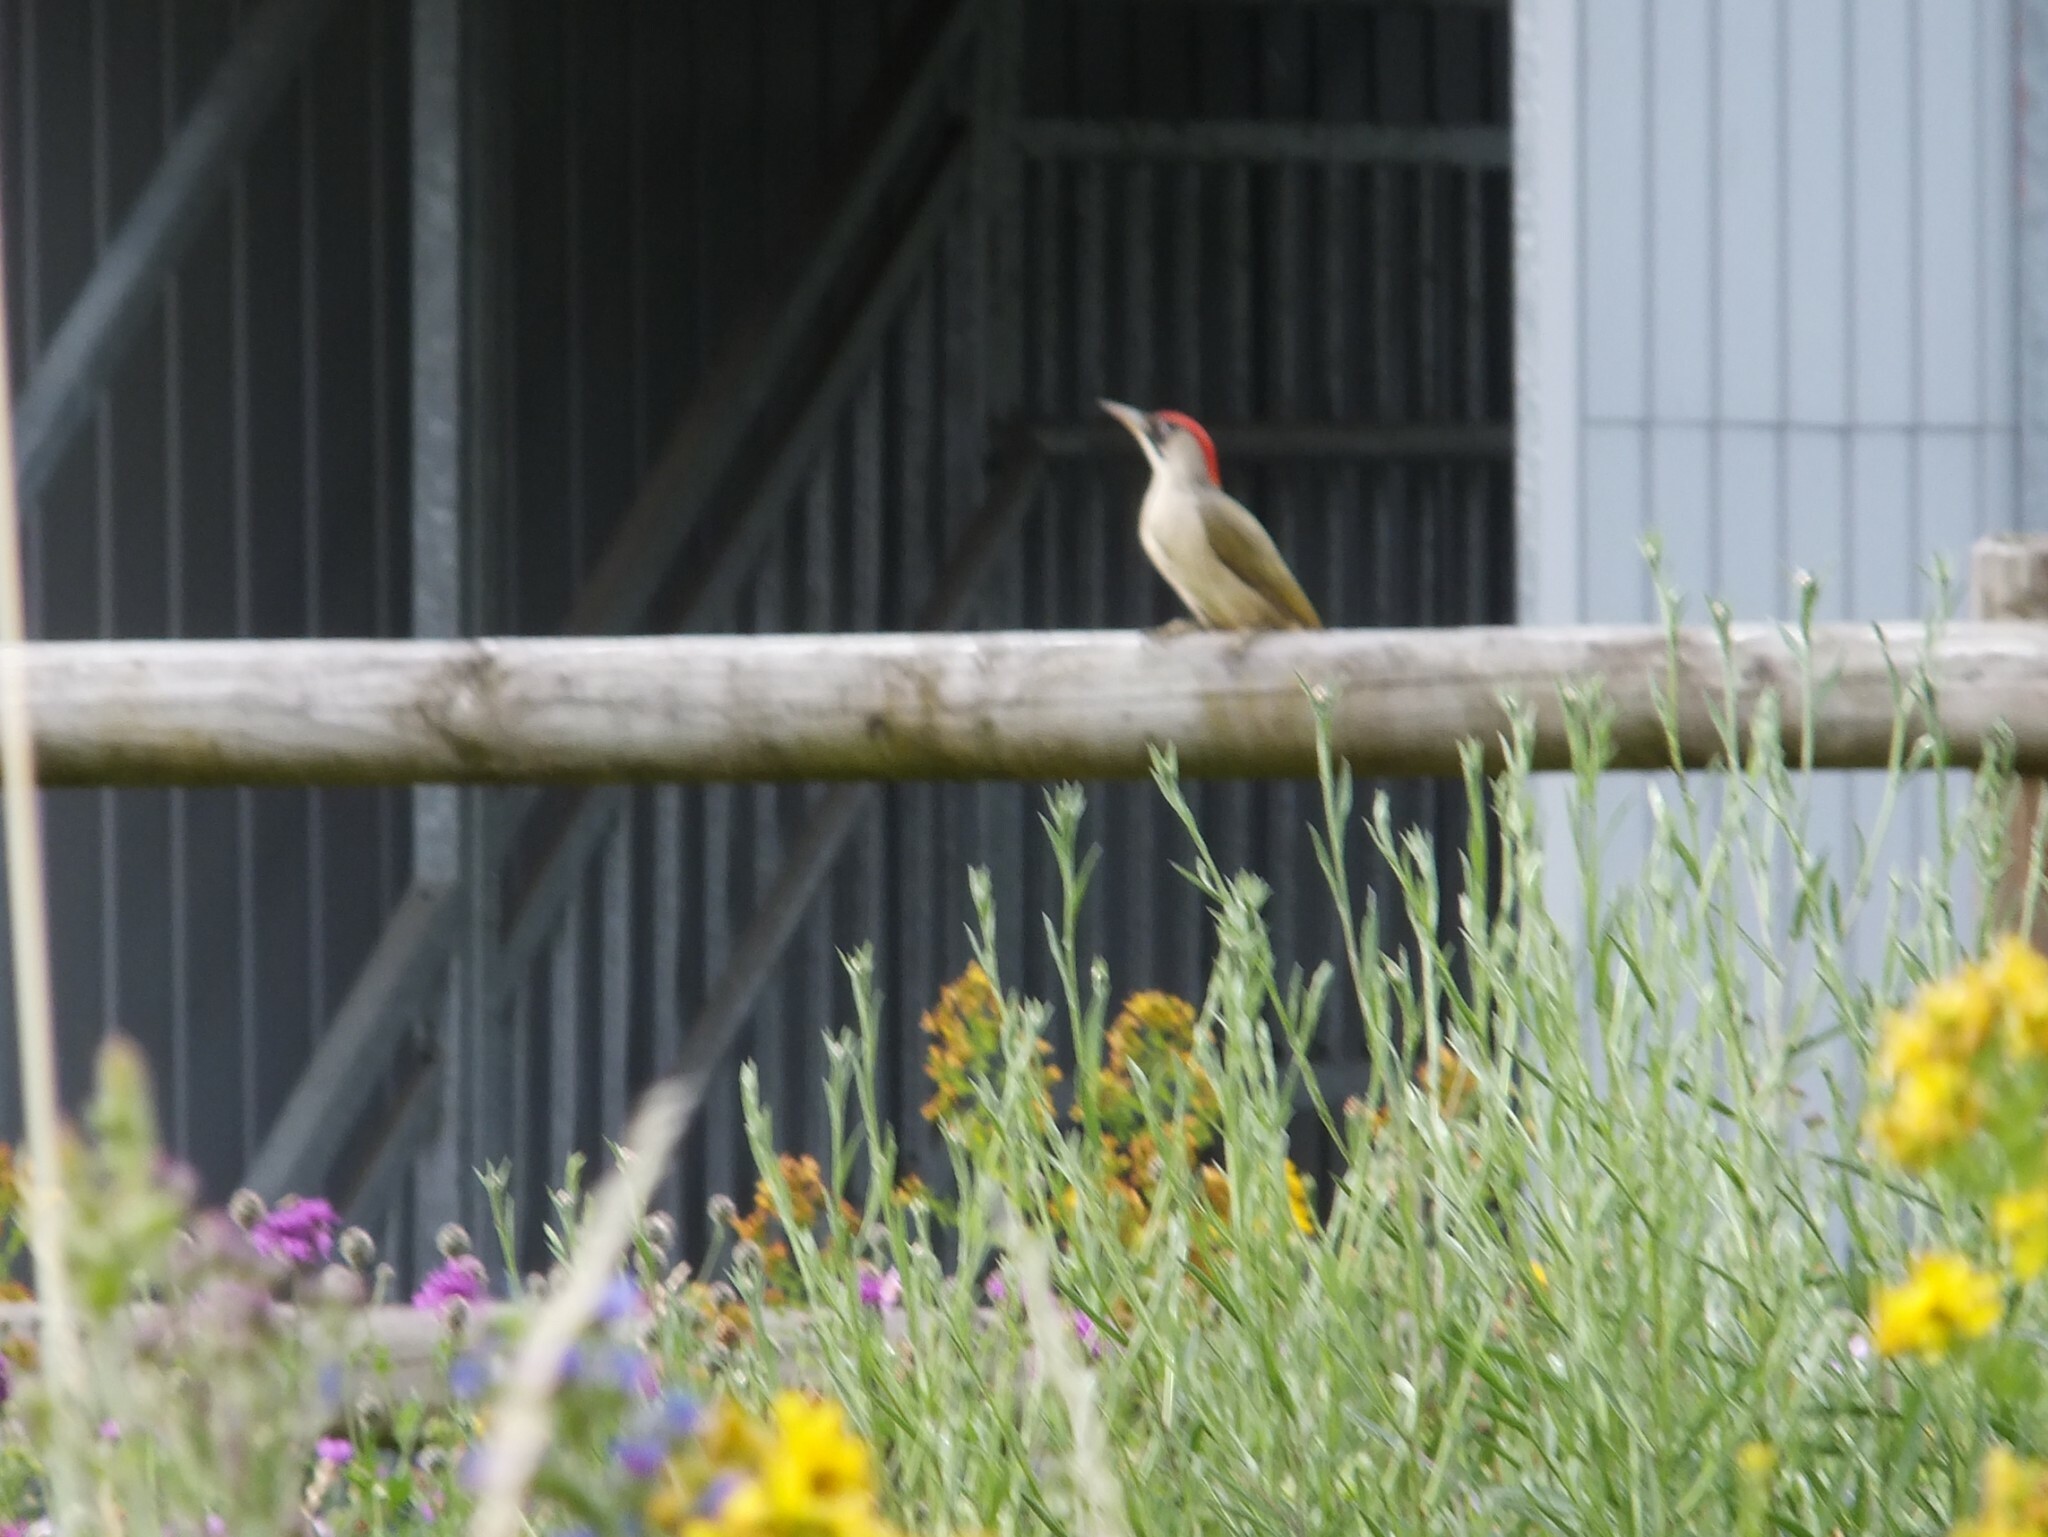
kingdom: Animalia
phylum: Chordata
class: Aves
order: Piciformes
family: Picidae
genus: Picus
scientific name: Picus viridis
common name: European green woodpecker
